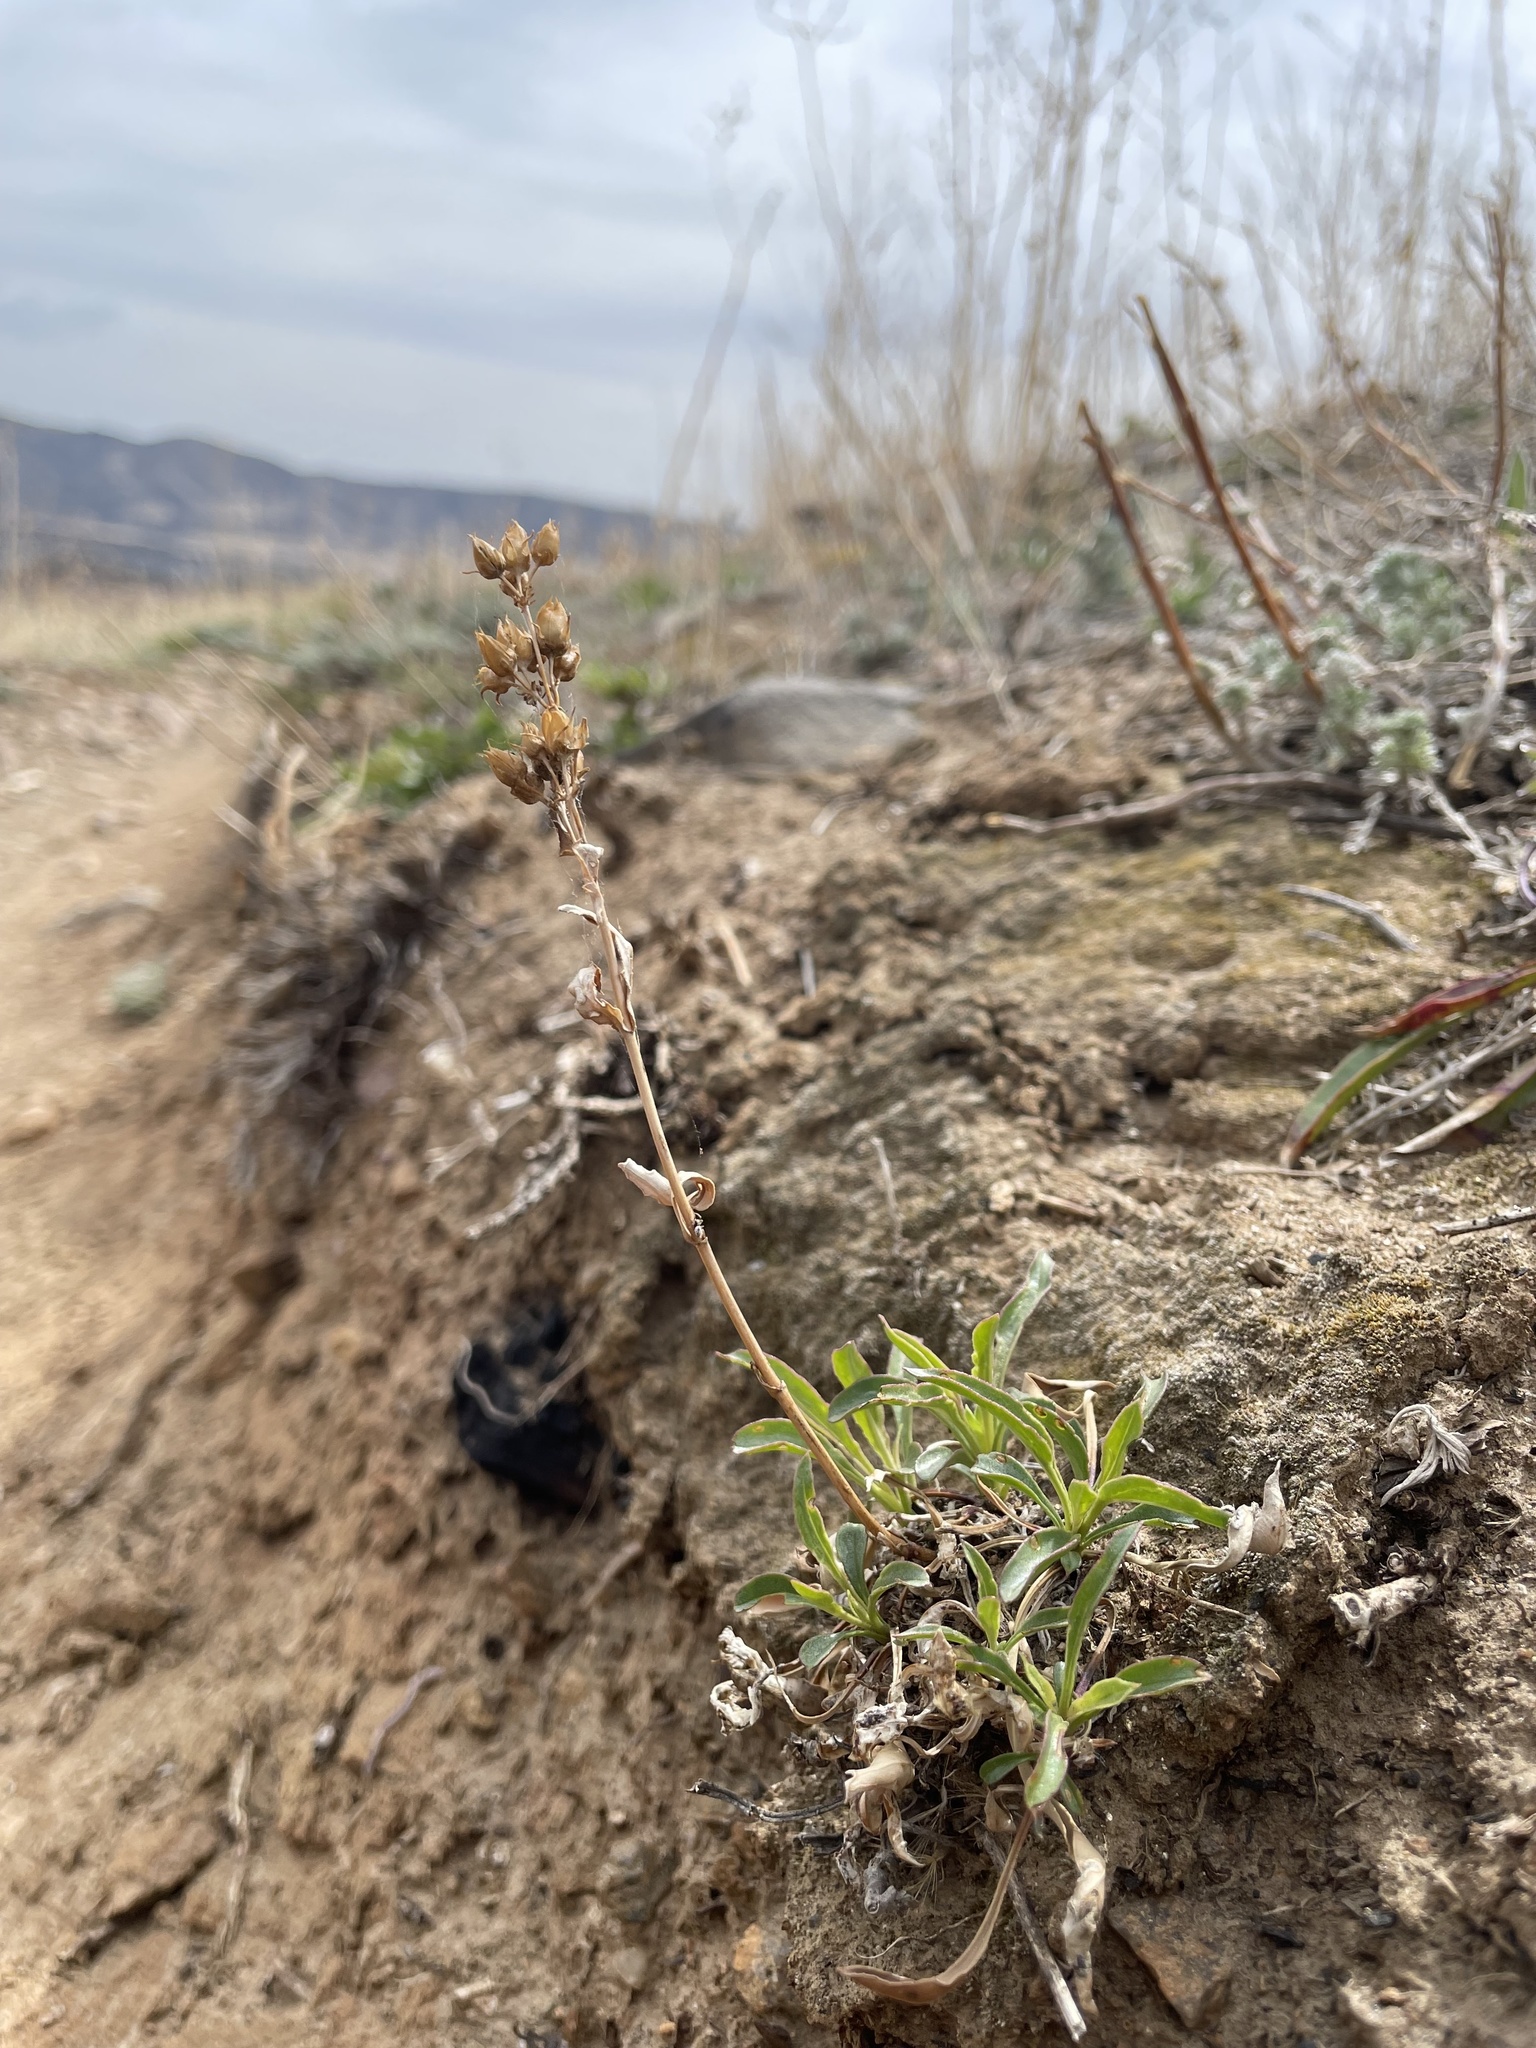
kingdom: Plantae
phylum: Tracheophyta
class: Magnoliopsida
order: Lamiales
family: Plantaginaceae
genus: Penstemon
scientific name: Penstemon virens
